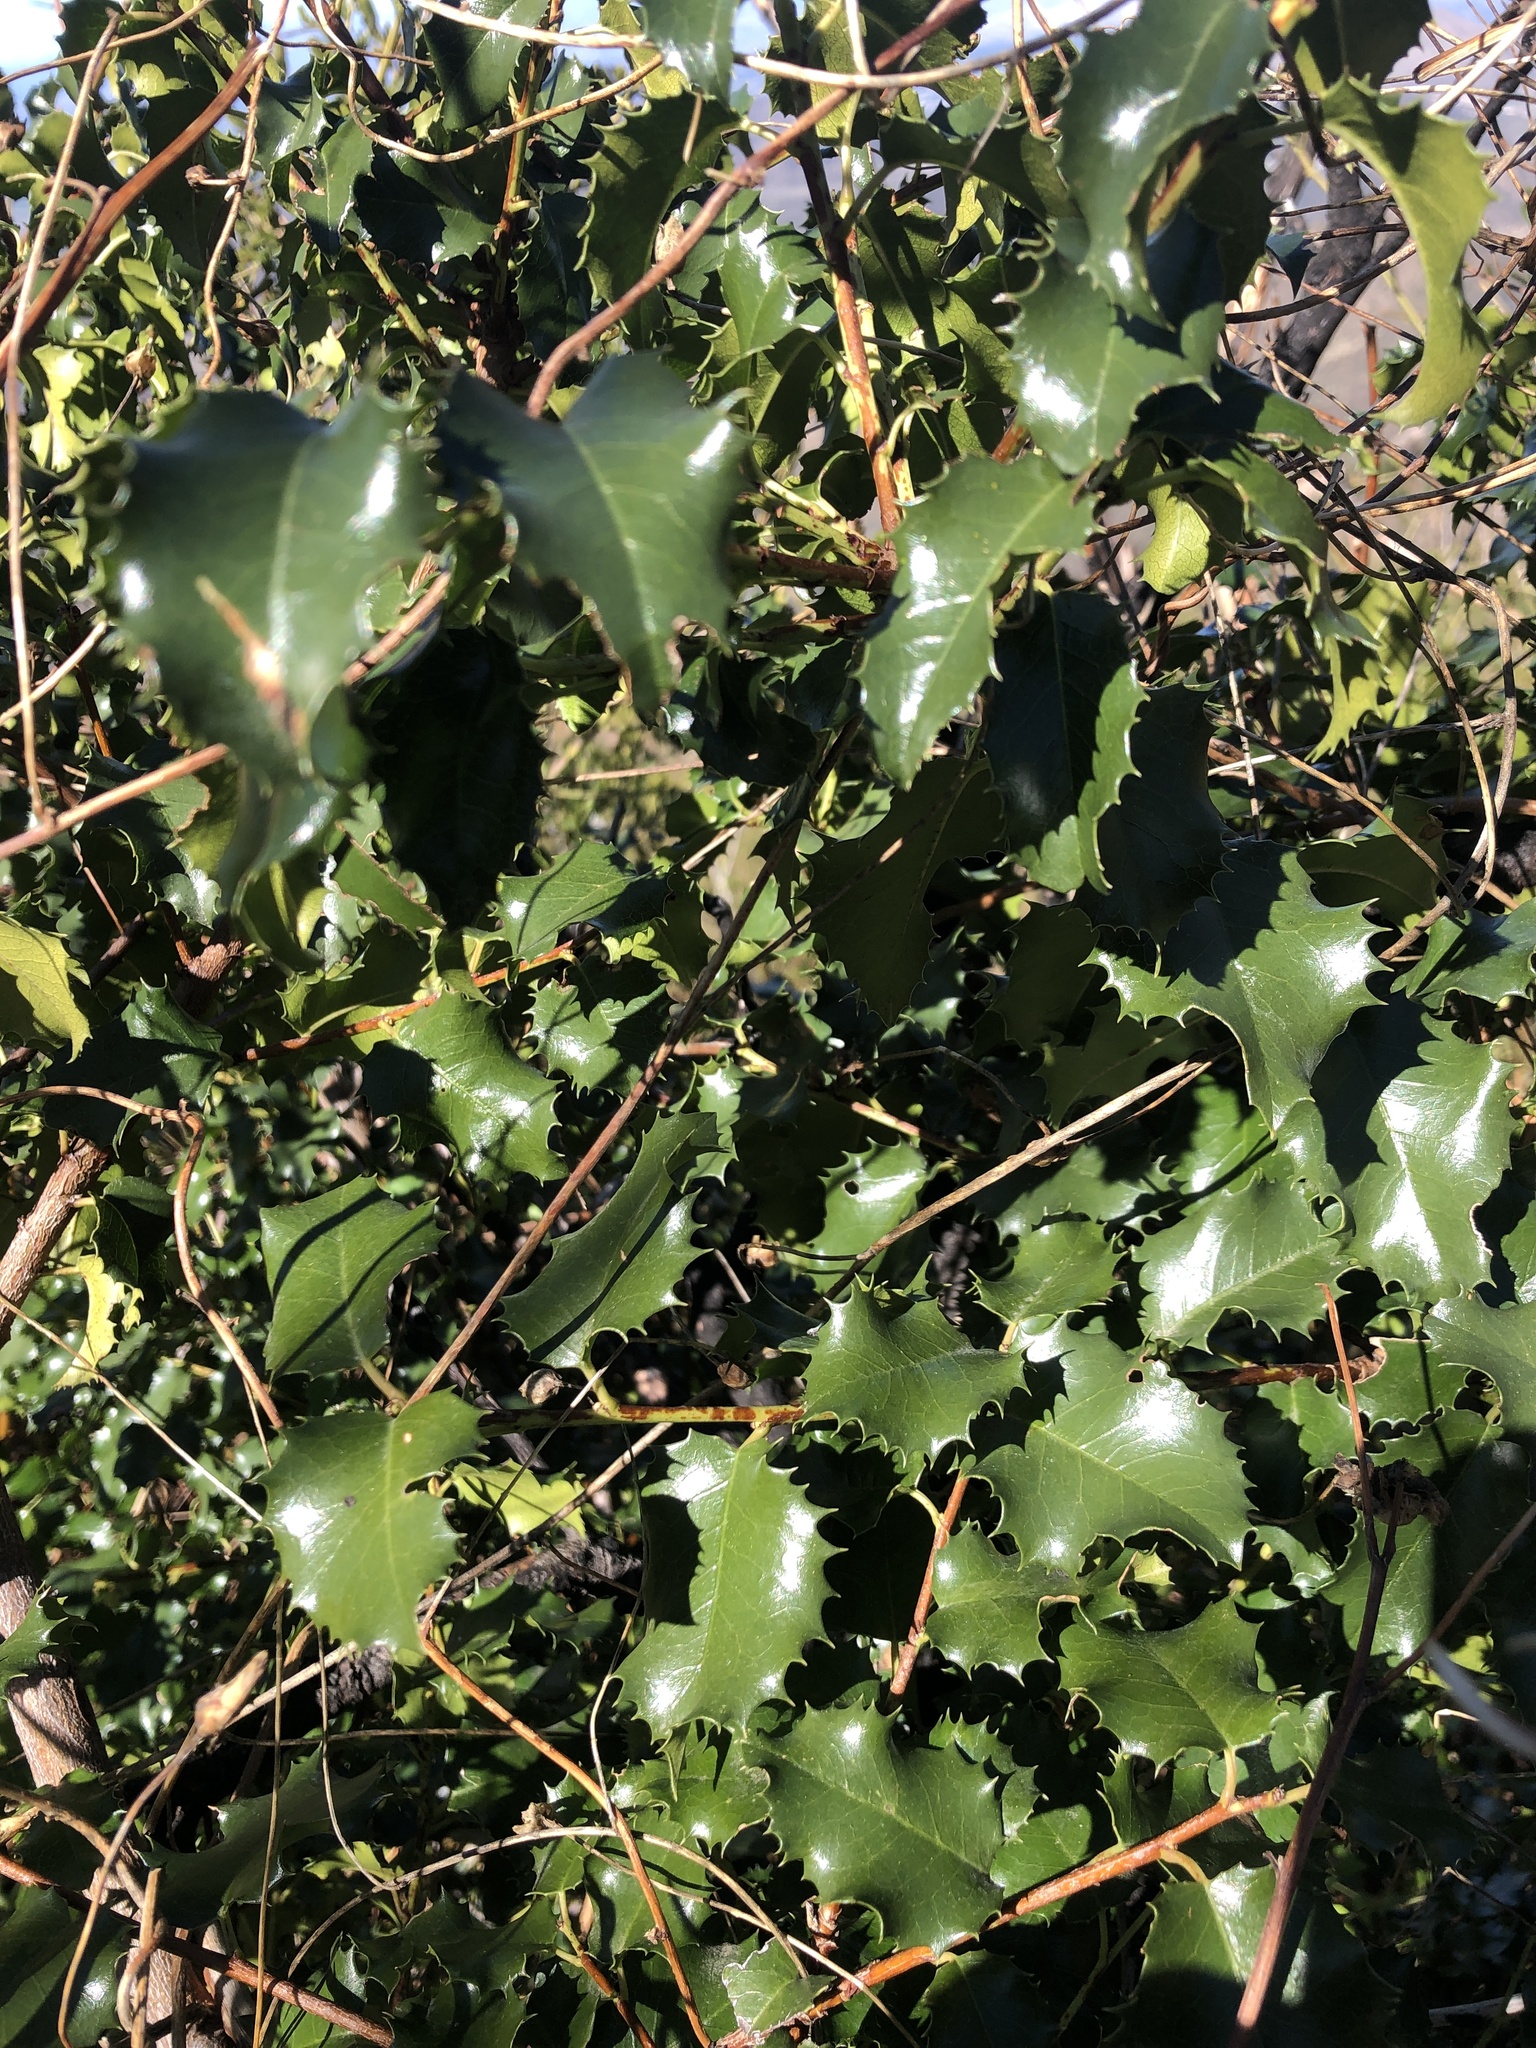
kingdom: Plantae
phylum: Tracheophyta
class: Magnoliopsida
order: Rosales
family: Rosaceae
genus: Prunus
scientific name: Prunus ilicifolia
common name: Hollyleaf cherry
